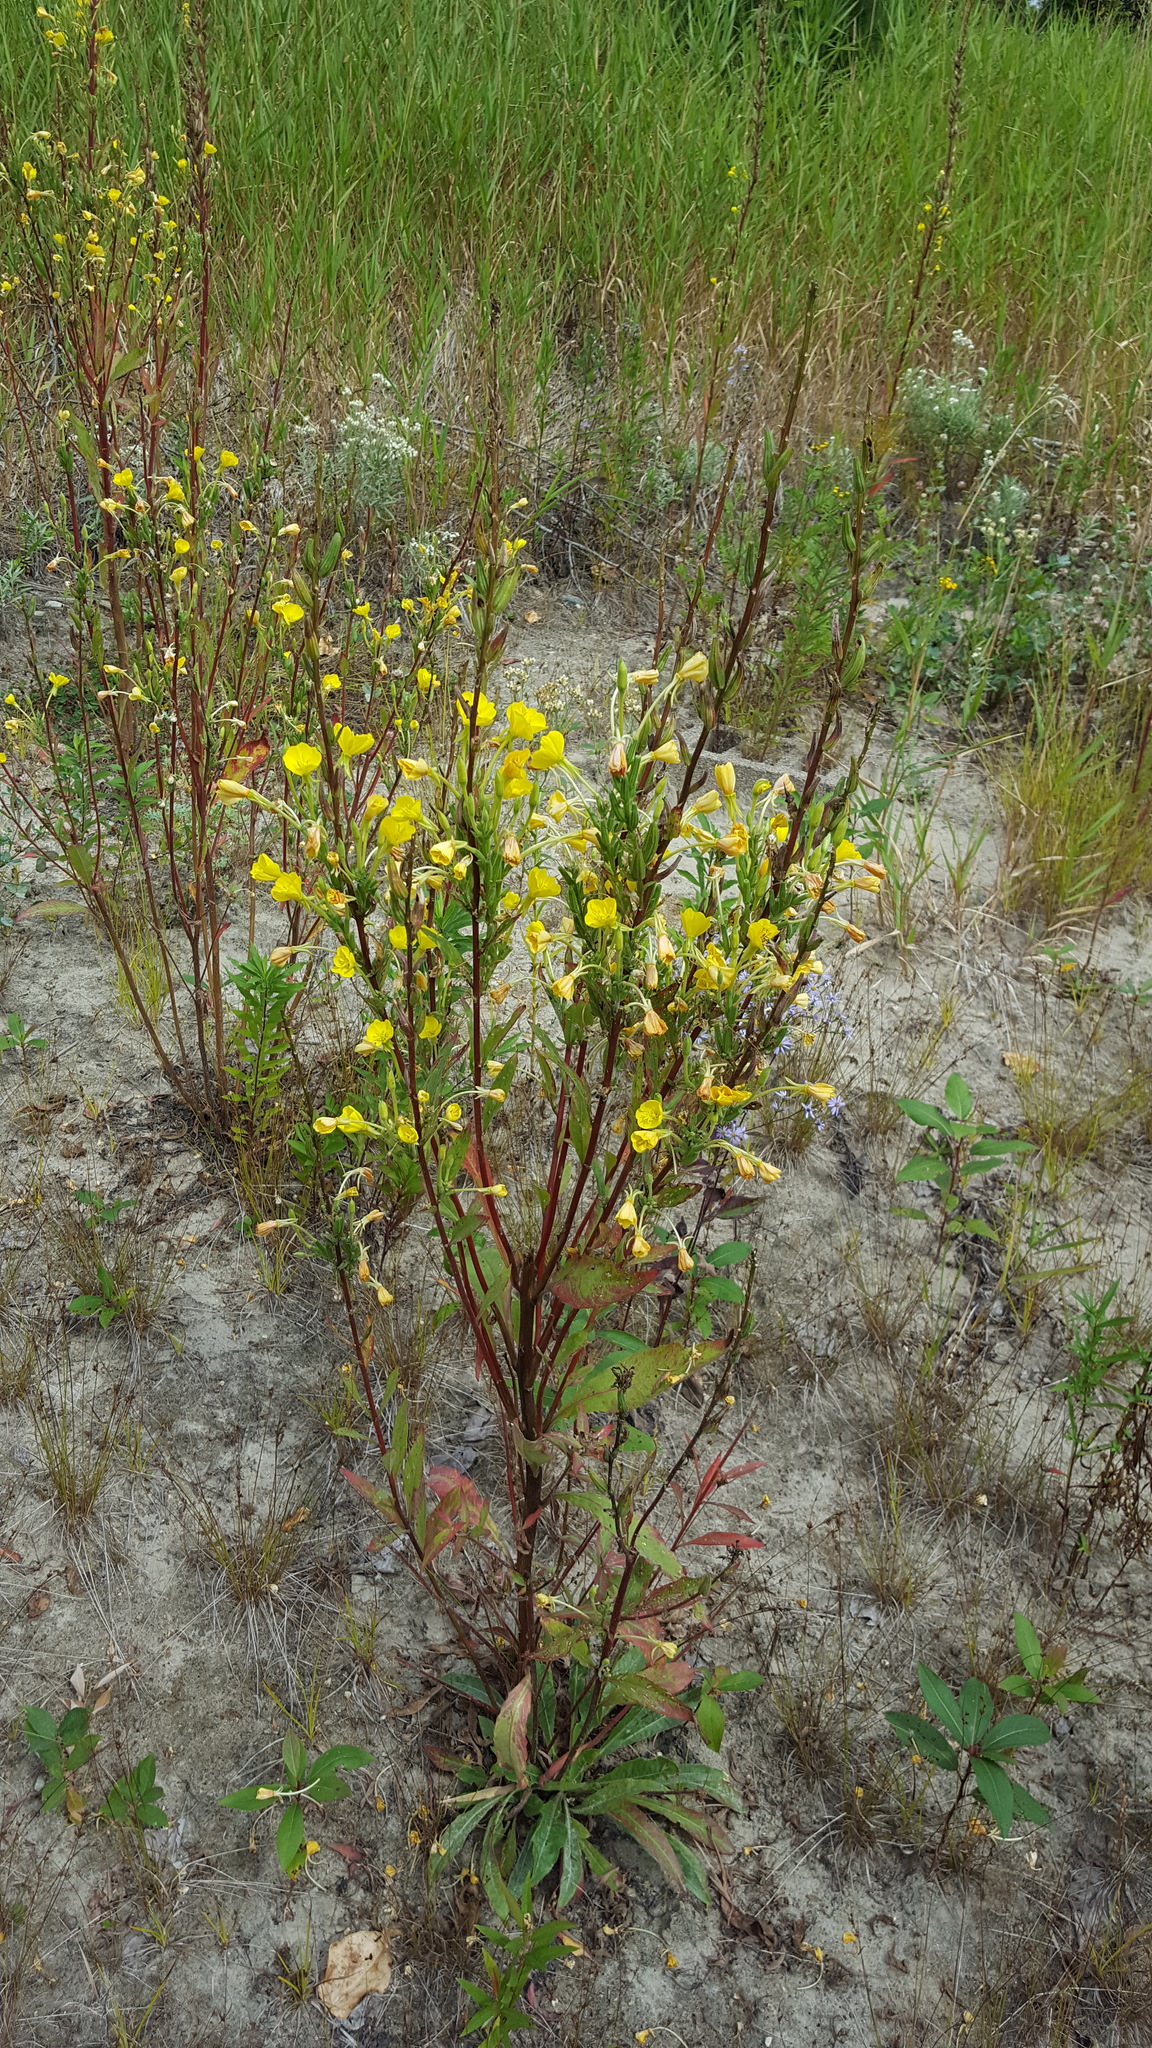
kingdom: Plantae
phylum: Tracheophyta
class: Magnoliopsida
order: Myrtales
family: Onagraceae
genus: Oenothera
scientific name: Oenothera biennis
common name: Common evening-primrose
